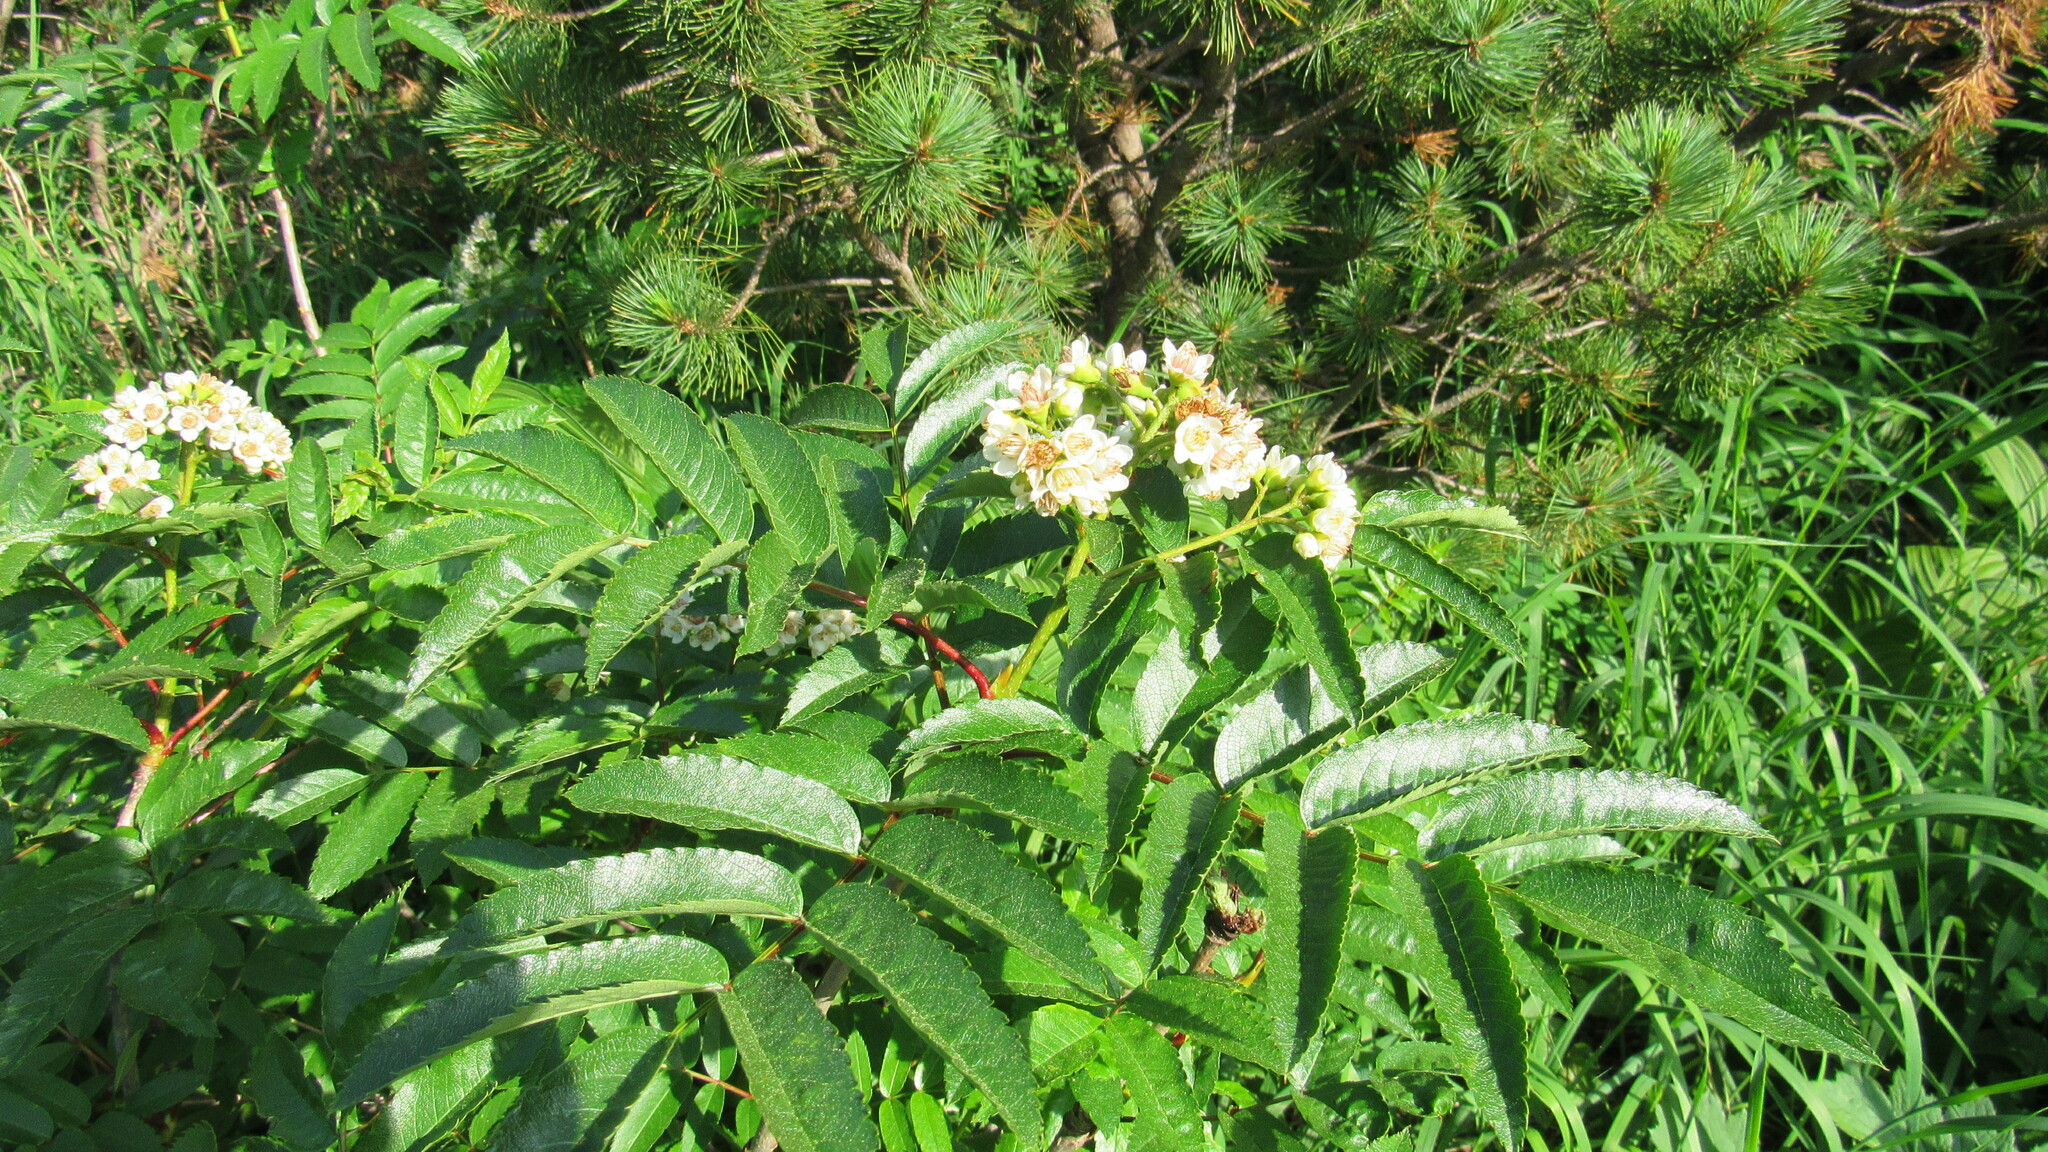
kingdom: Plantae
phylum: Tracheophyta
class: Magnoliopsida
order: Rosales
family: Rosaceae
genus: Sorbus
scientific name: Sorbus sambucifolia
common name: Siberian mountain-ash
